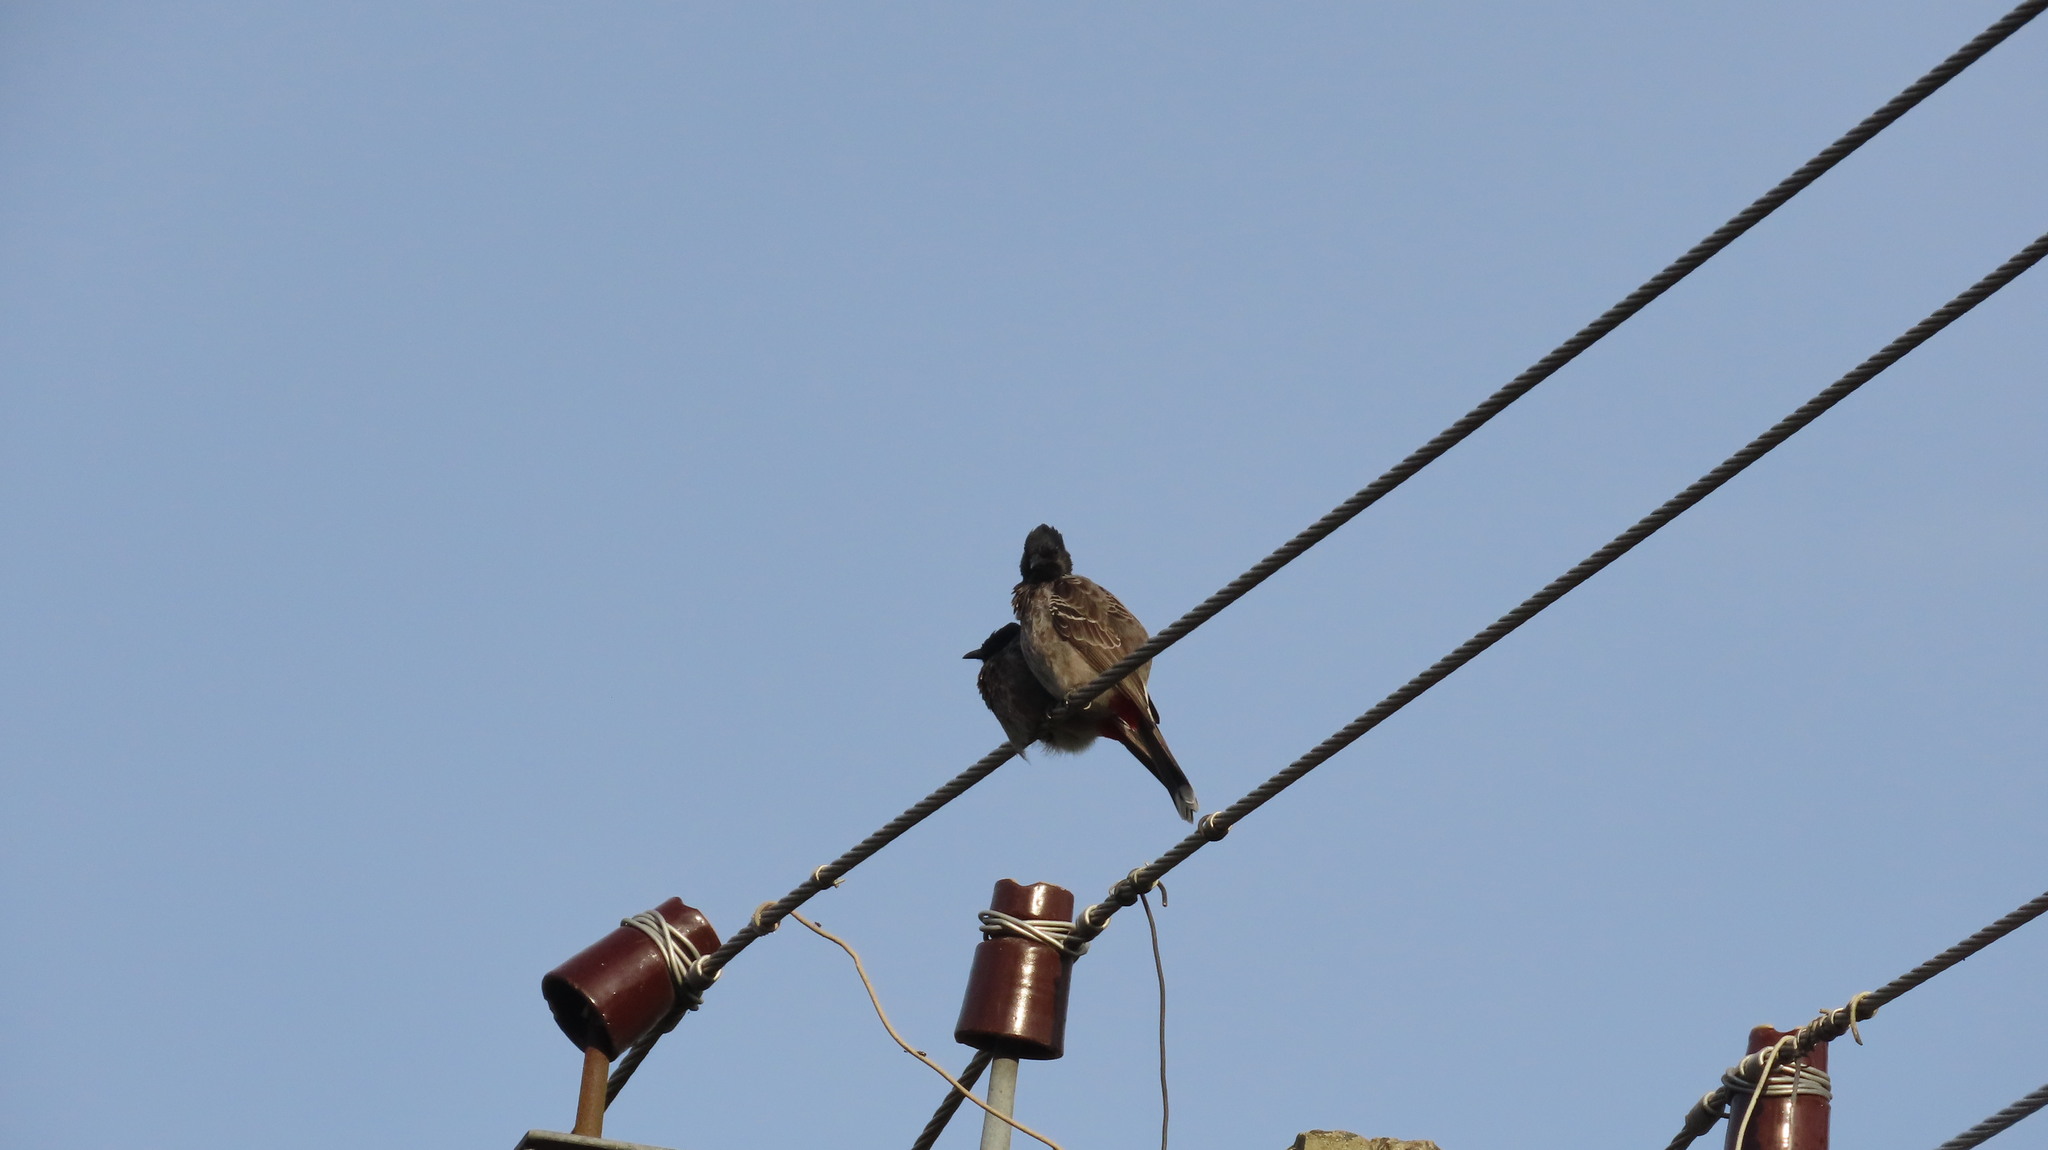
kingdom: Animalia
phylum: Chordata
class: Aves
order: Passeriformes
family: Pycnonotidae
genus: Pycnonotus
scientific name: Pycnonotus cafer
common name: Red-vented bulbul
